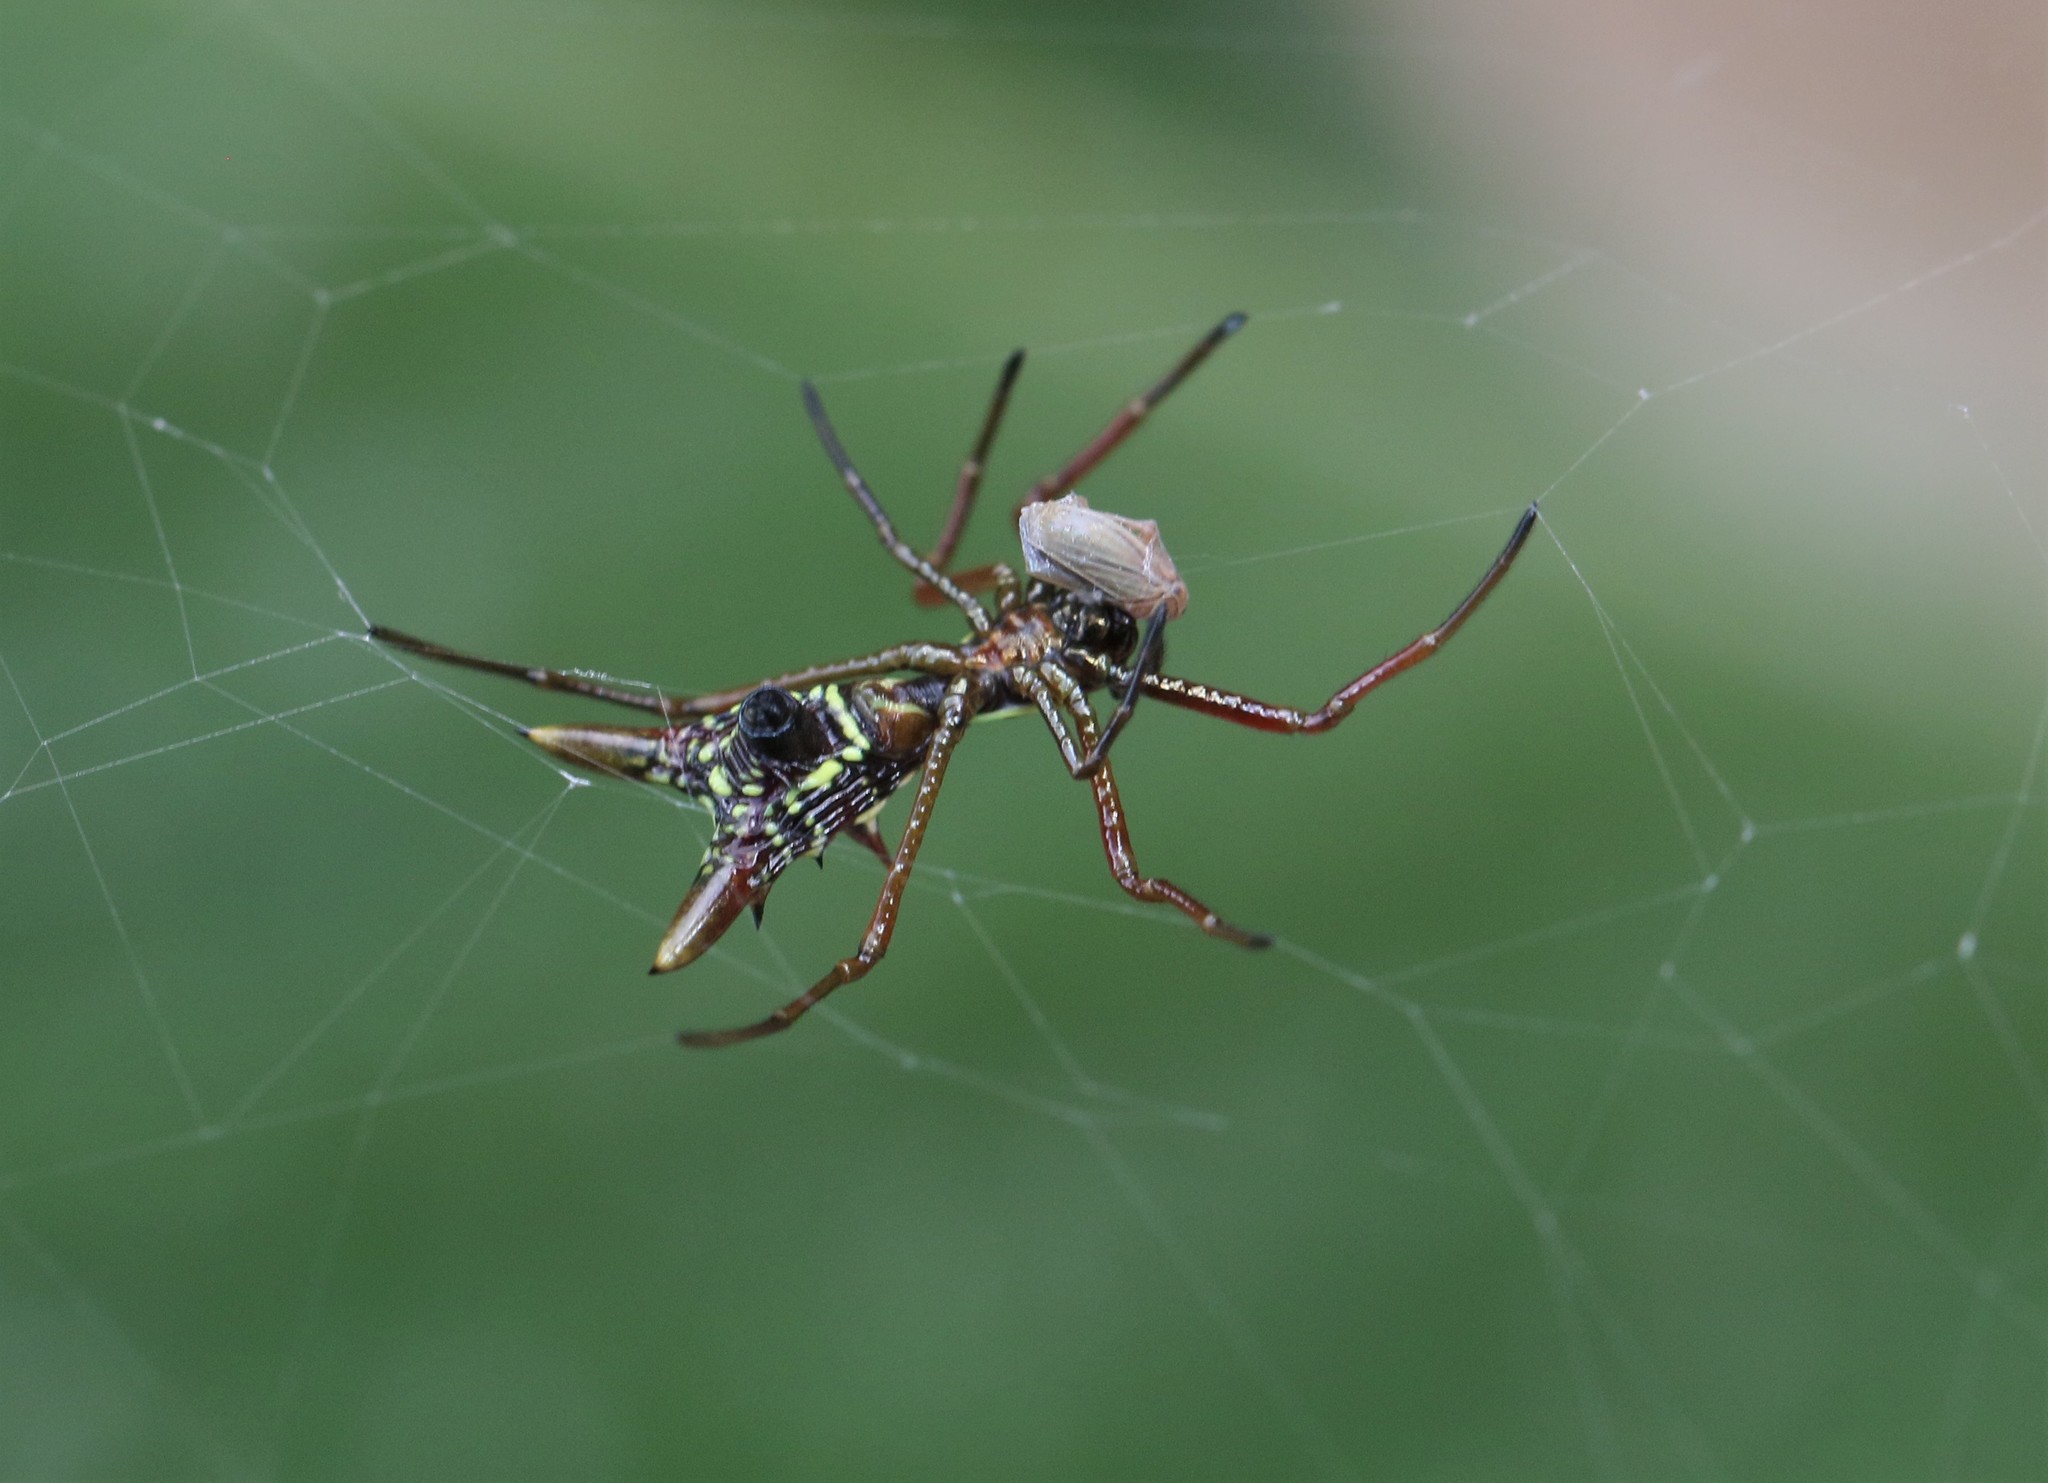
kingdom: Animalia
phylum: Arthropoda
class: Arachnida
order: Araneae
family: Araneidae
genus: Micrathena
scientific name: Micrathena sexspinosa
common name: Orb weavers
